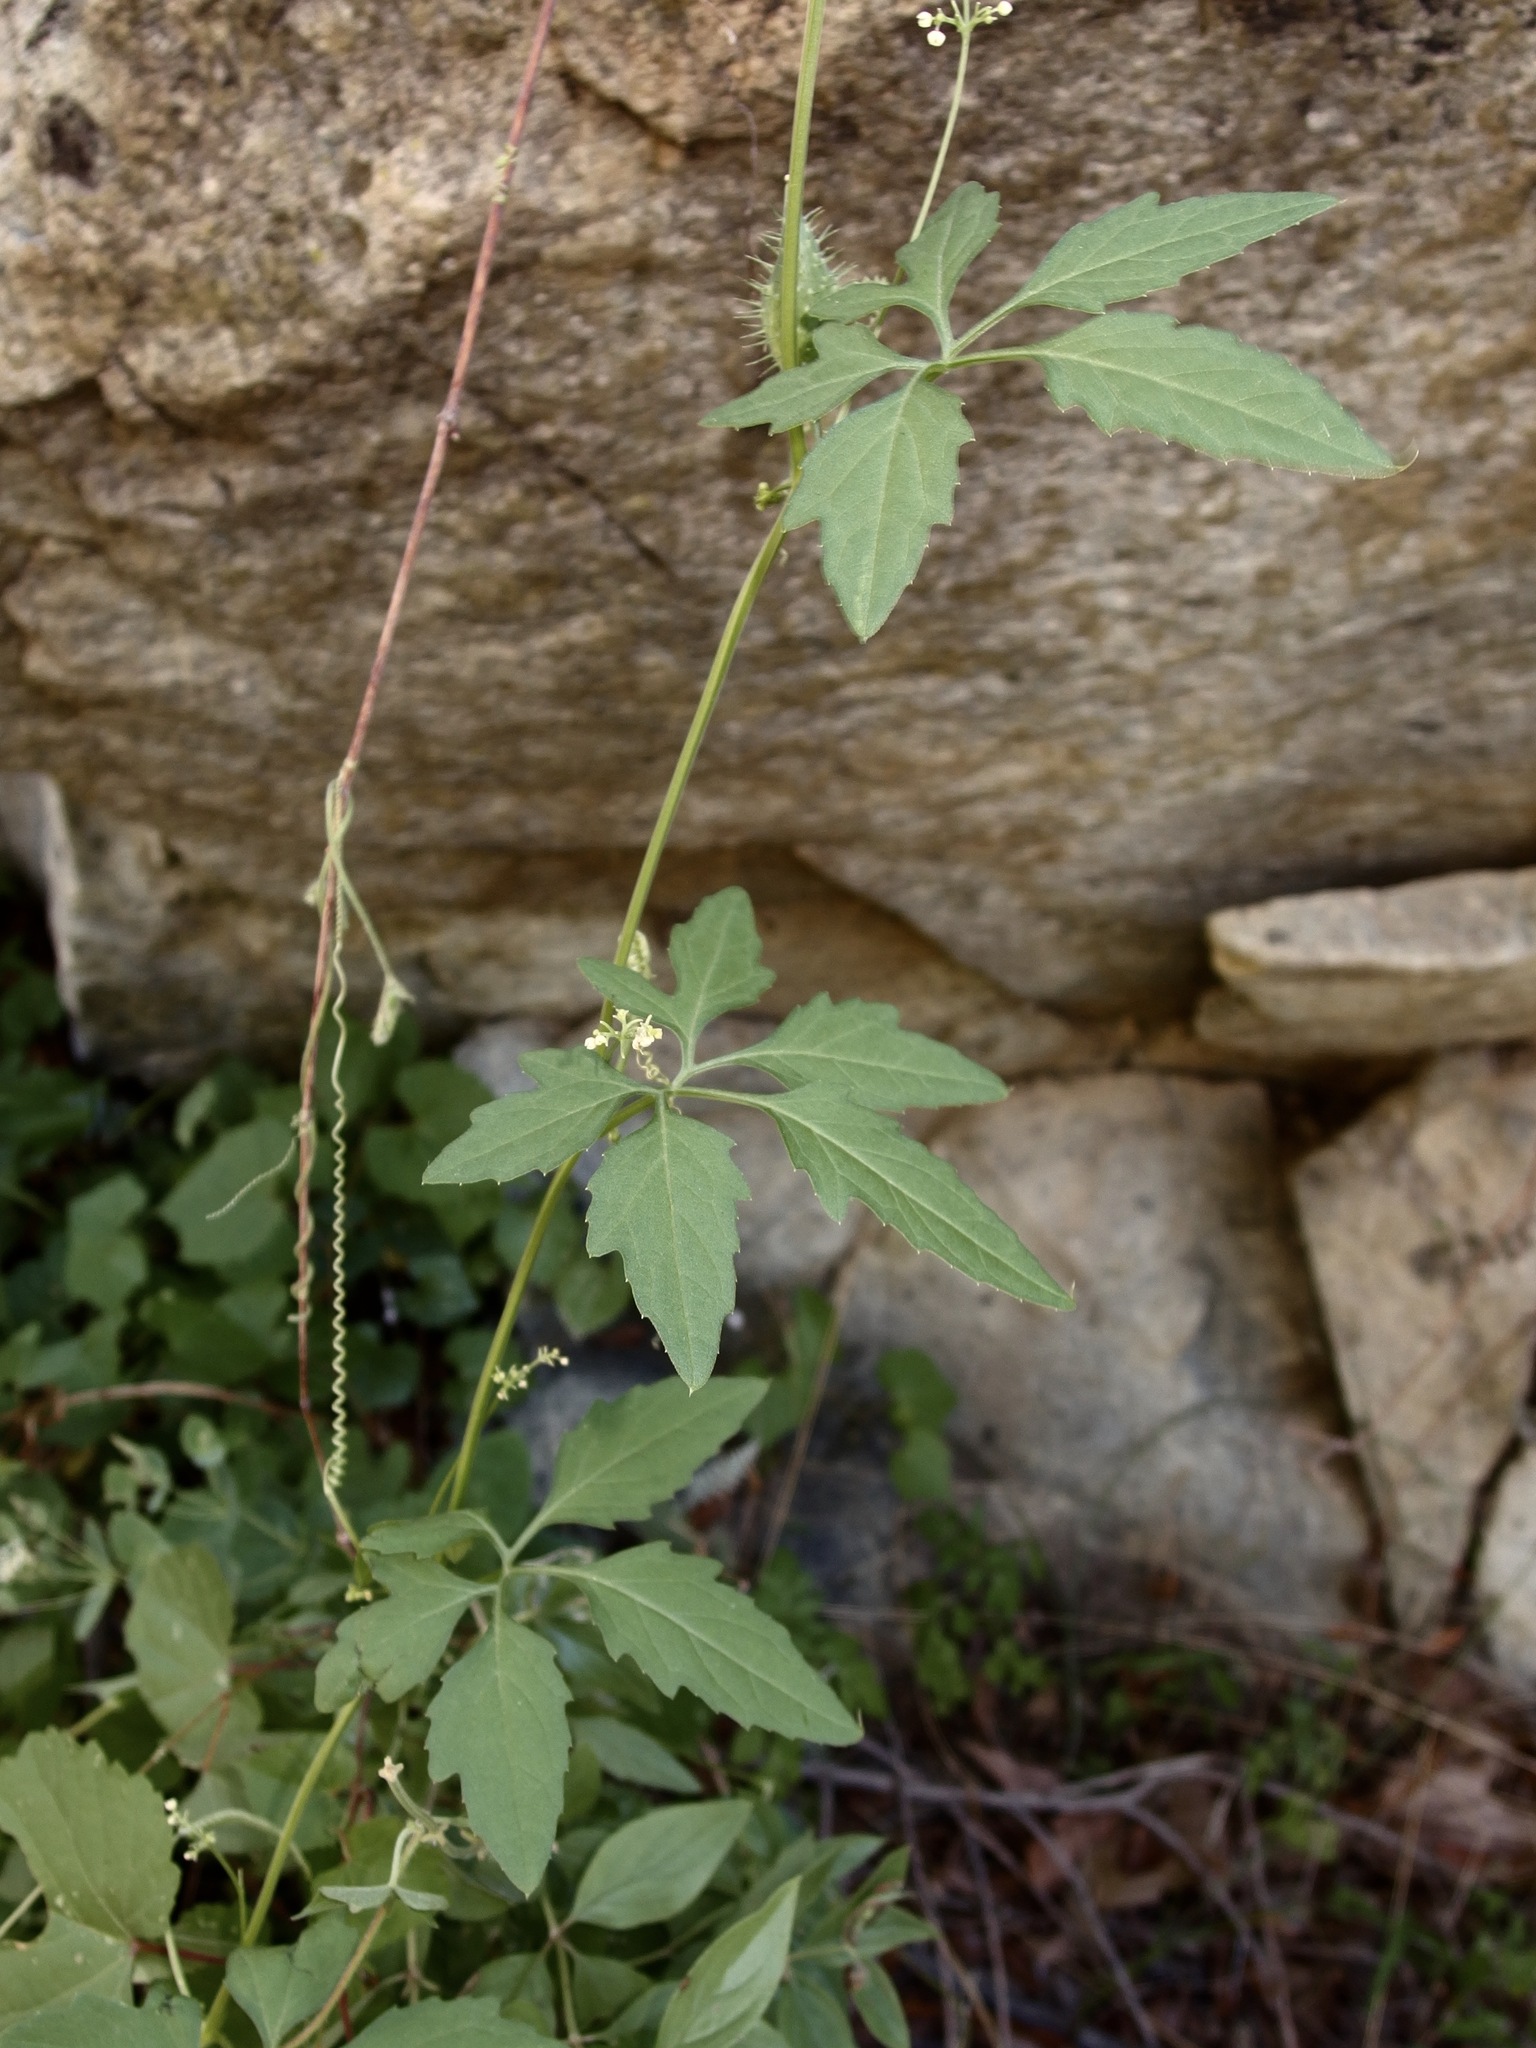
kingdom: Plantae
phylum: Tracheophyta
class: Magnoliopsida
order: Cucurbitales
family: Cucurbitaceae
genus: Cyclanthera
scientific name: Cyclanthera gracillima
